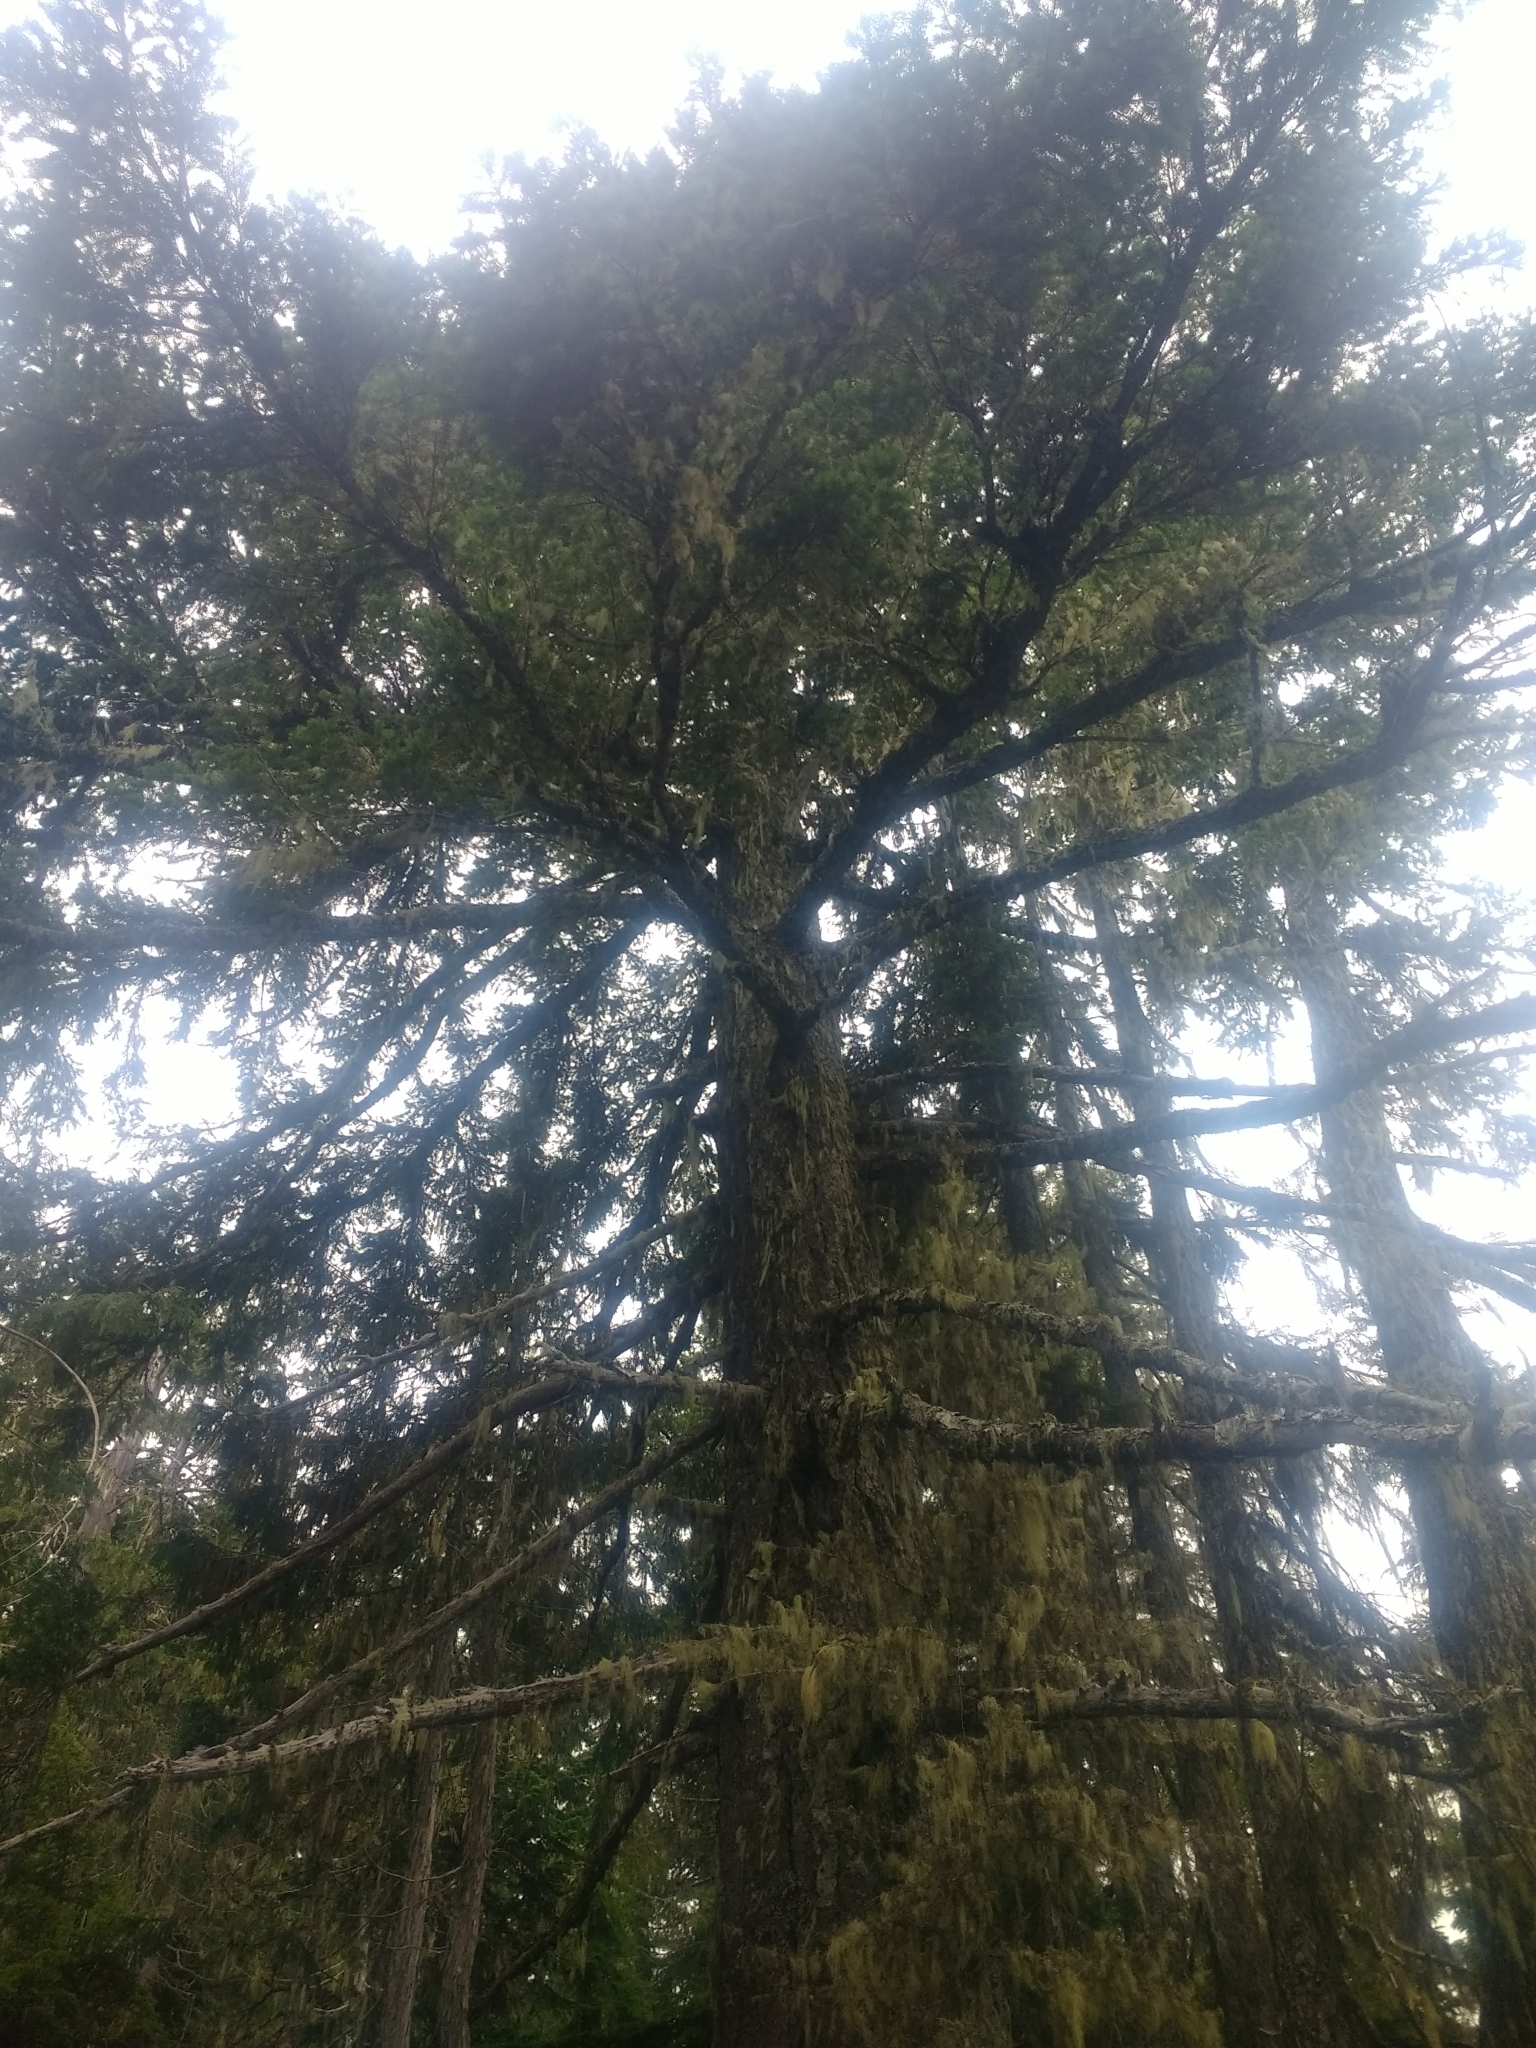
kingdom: Plantae
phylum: Tracheophyta
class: Pinopsida
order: Pinales
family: Pinaceae
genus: Pseudotsuga
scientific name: Pseudotsuga menziesii
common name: Douglas fir
